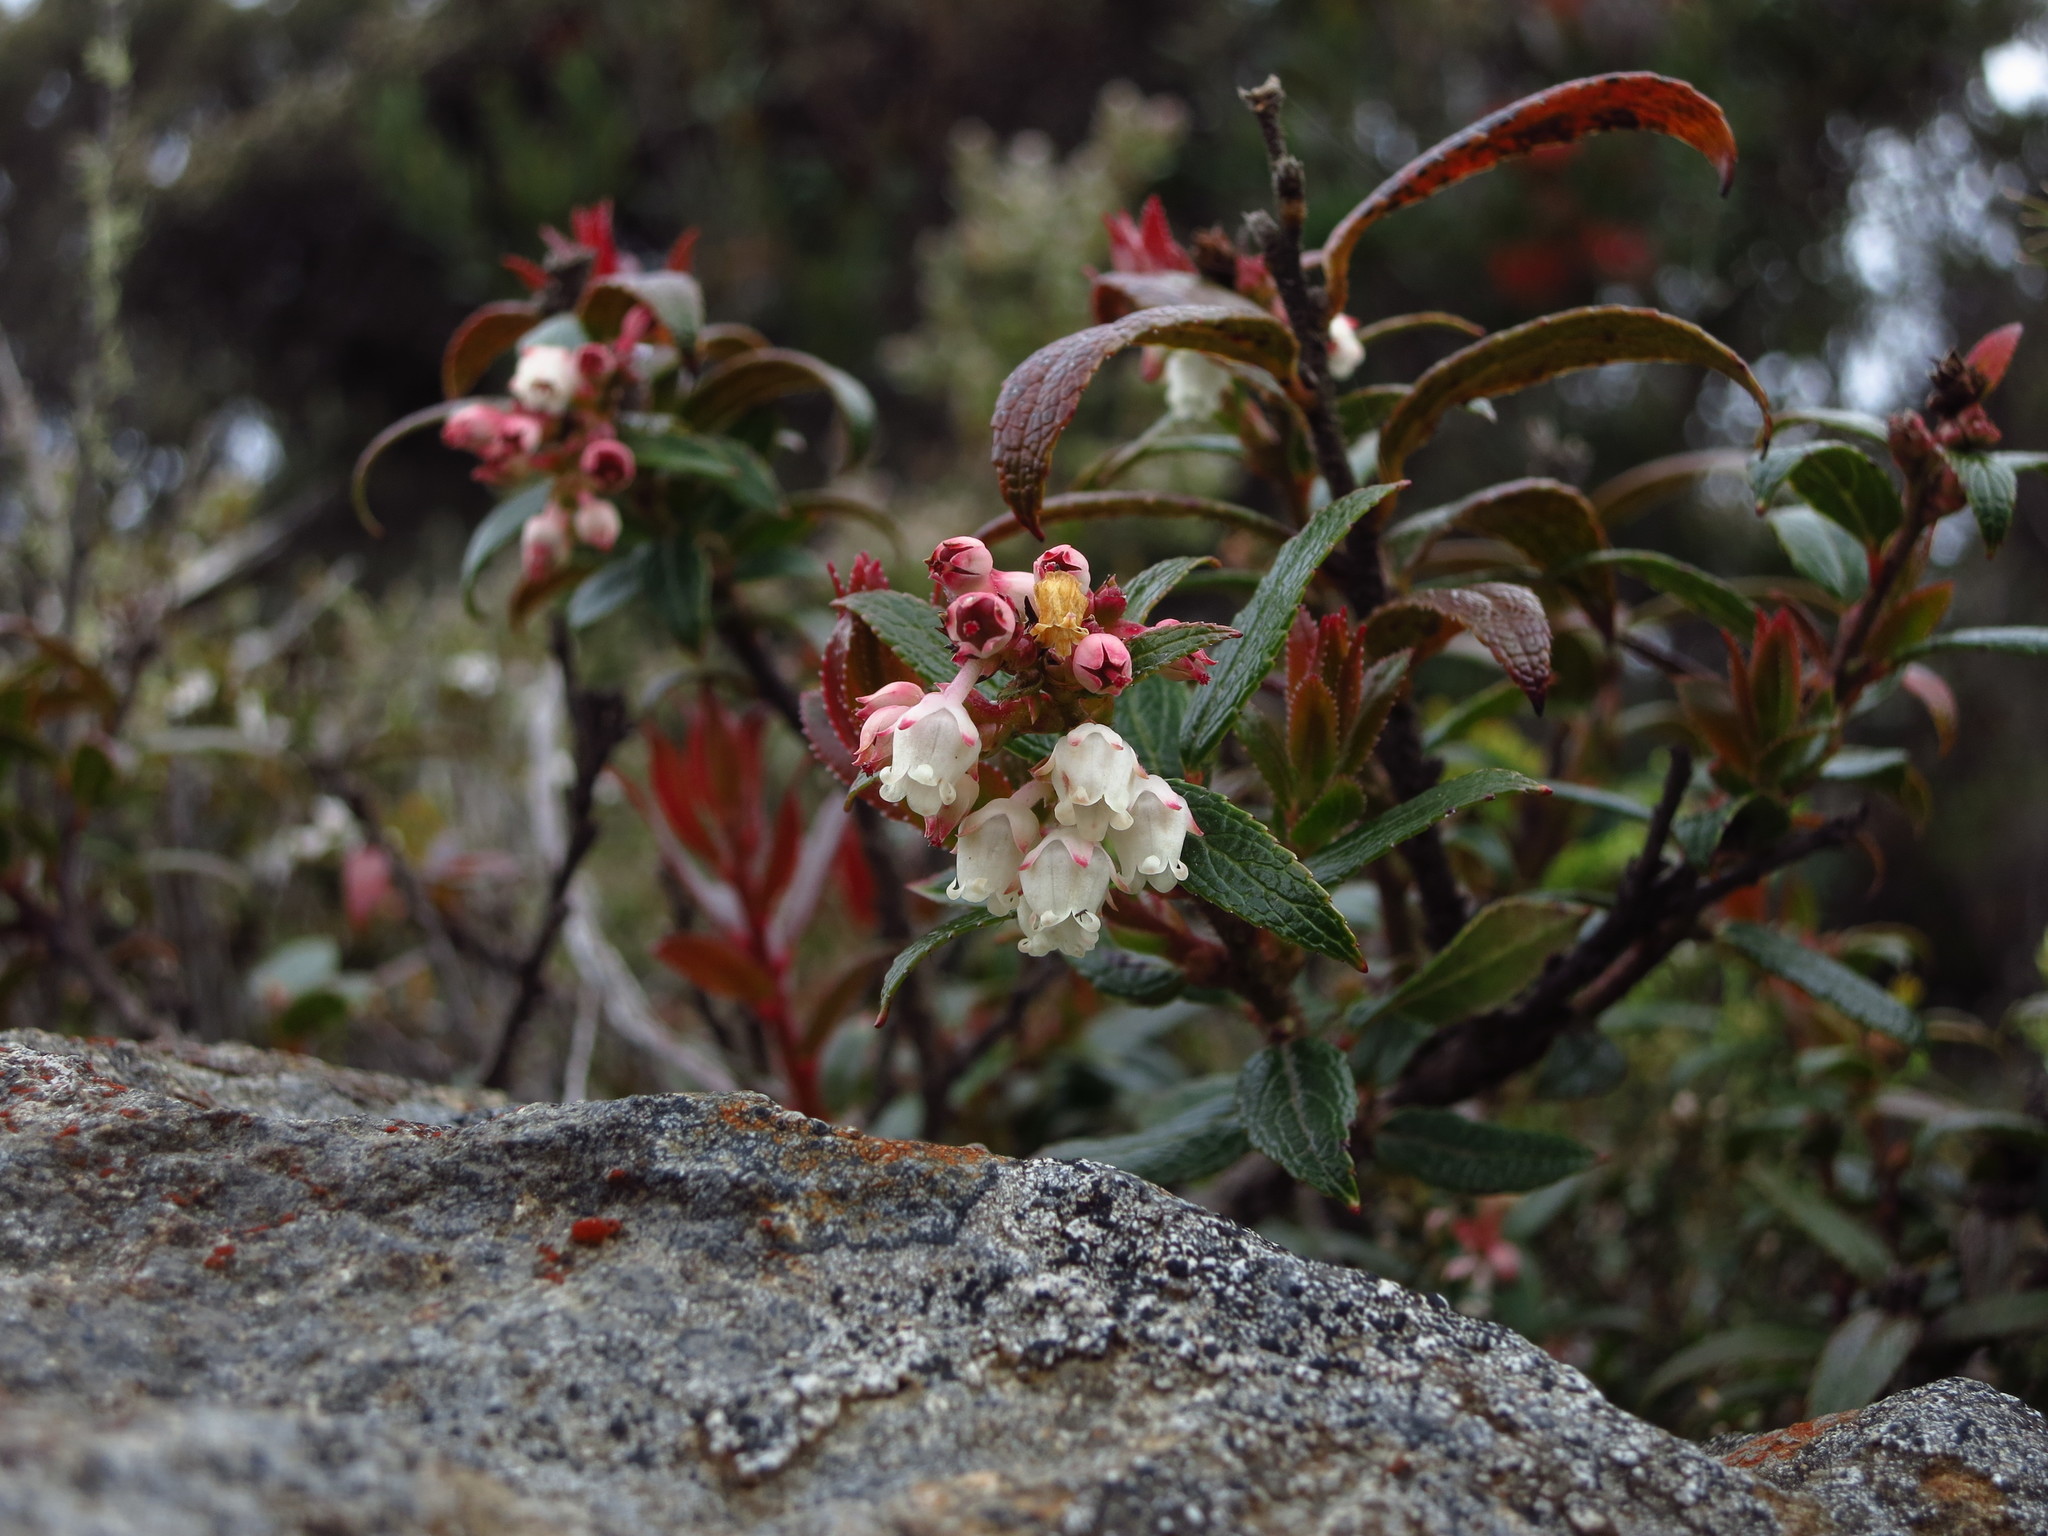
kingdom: Plantae
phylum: Tracheophyta
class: Magnoliopsida
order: Ericales
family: Ericaceae
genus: Gaultheria
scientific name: Gaultheria hispida
